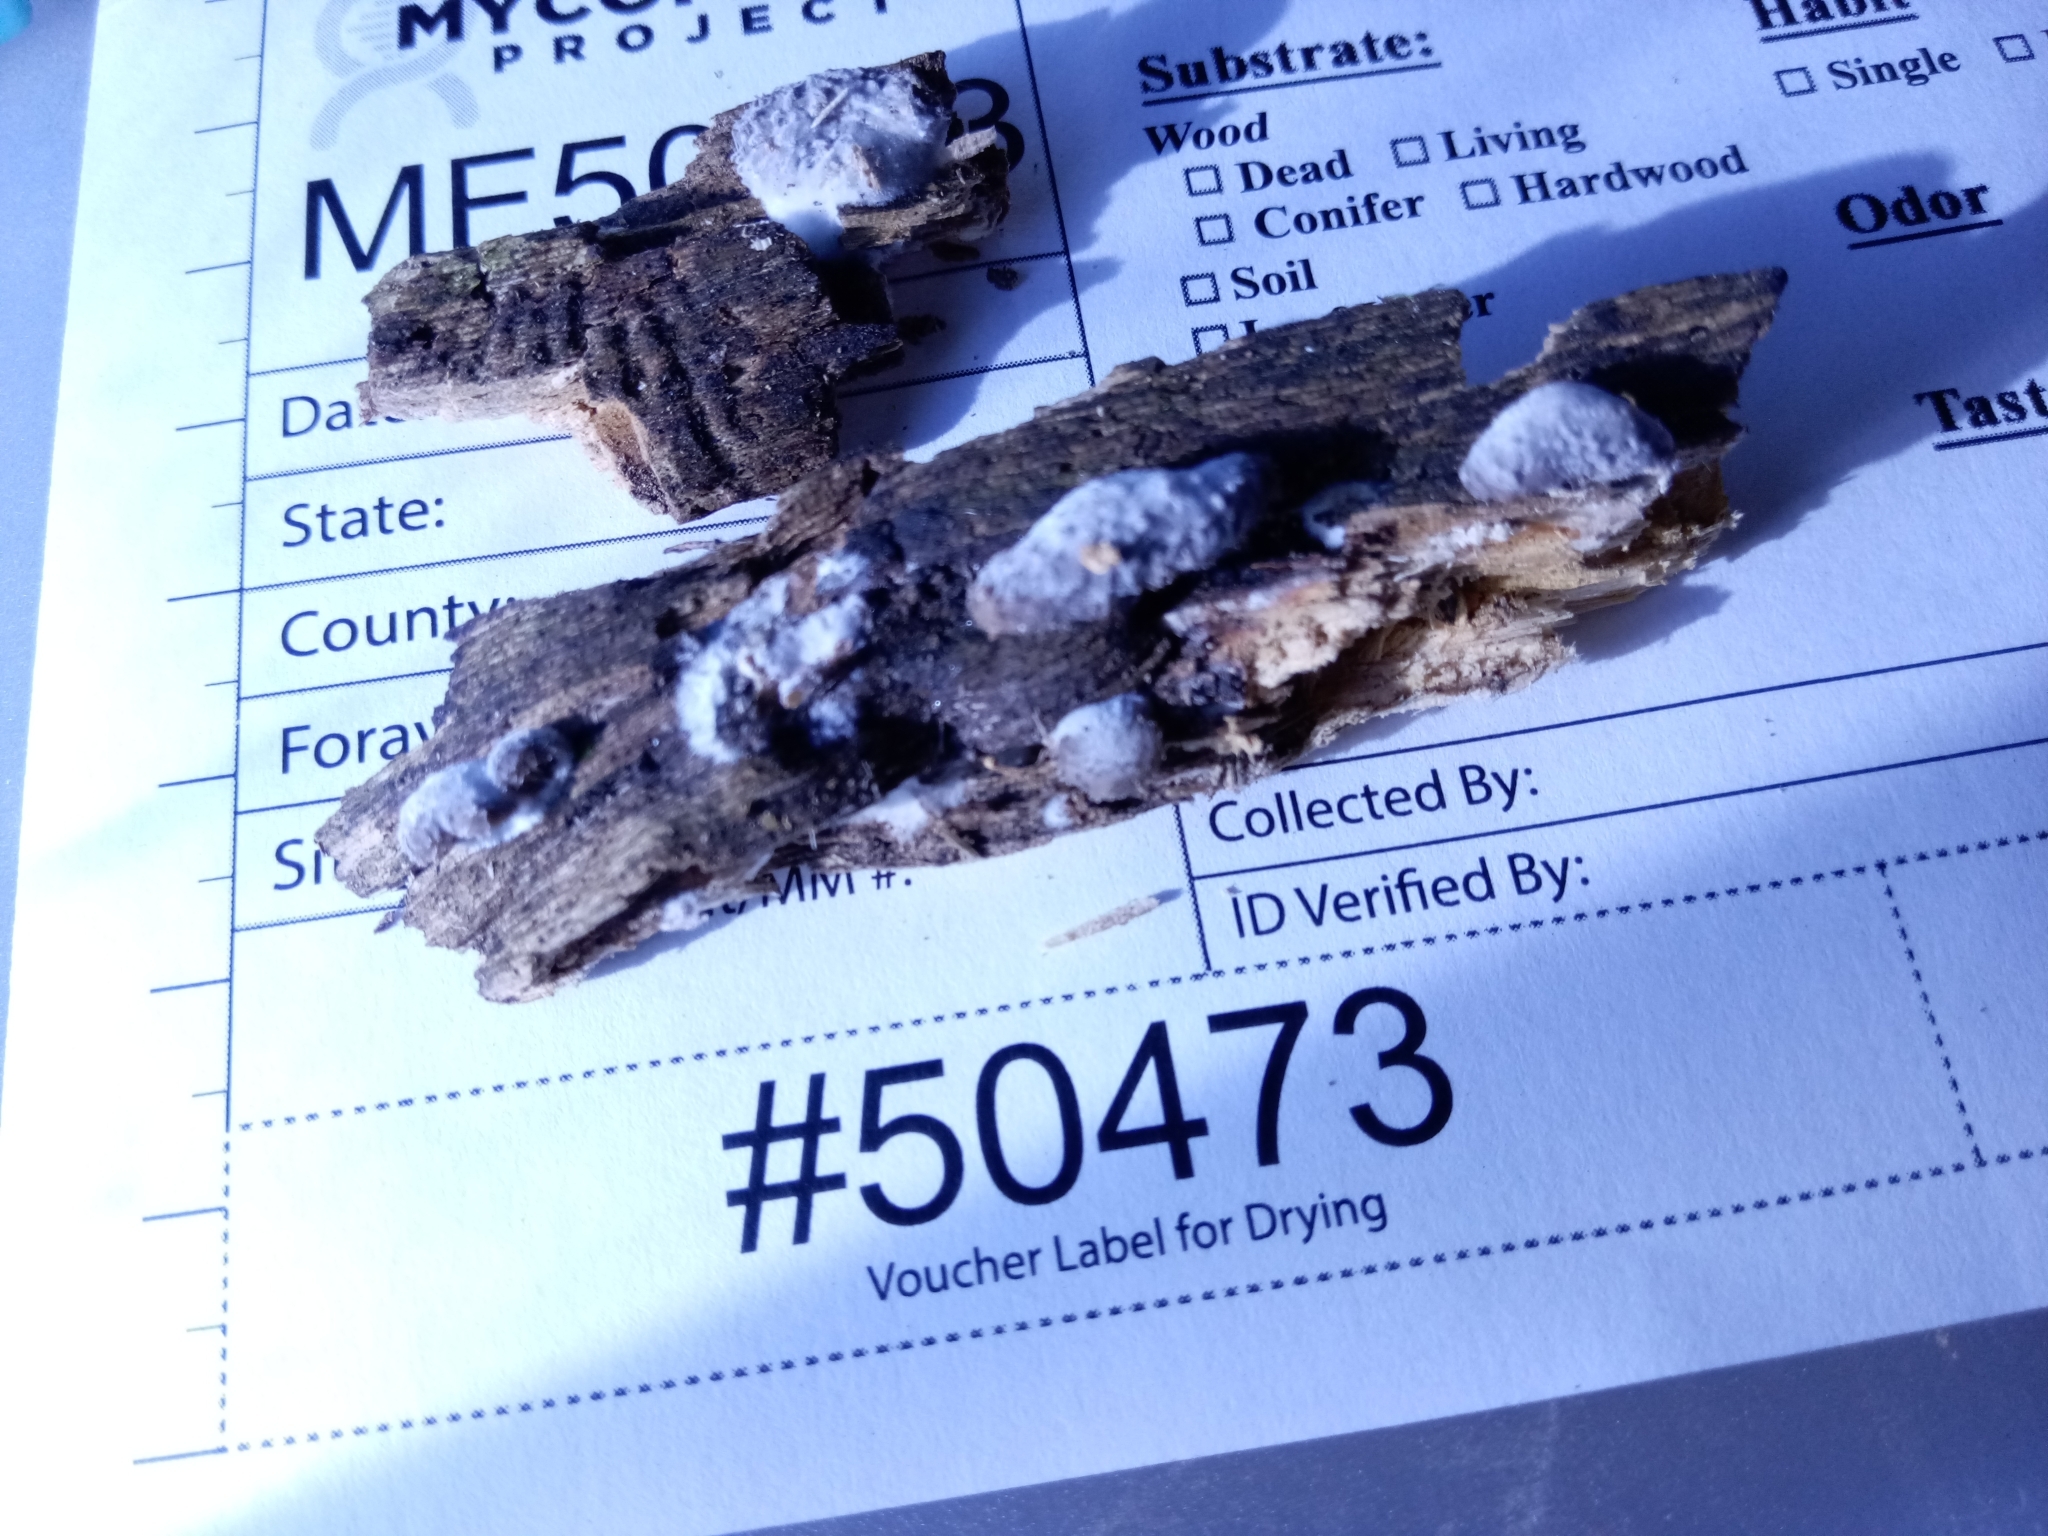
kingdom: Fungi
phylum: Basidiomycota
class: Agaricomycetes
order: Agaricales
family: Pleurotaceae
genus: Hohenbuehelia
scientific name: Hohenbuehelia mastrucata
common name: Woolly oyster
